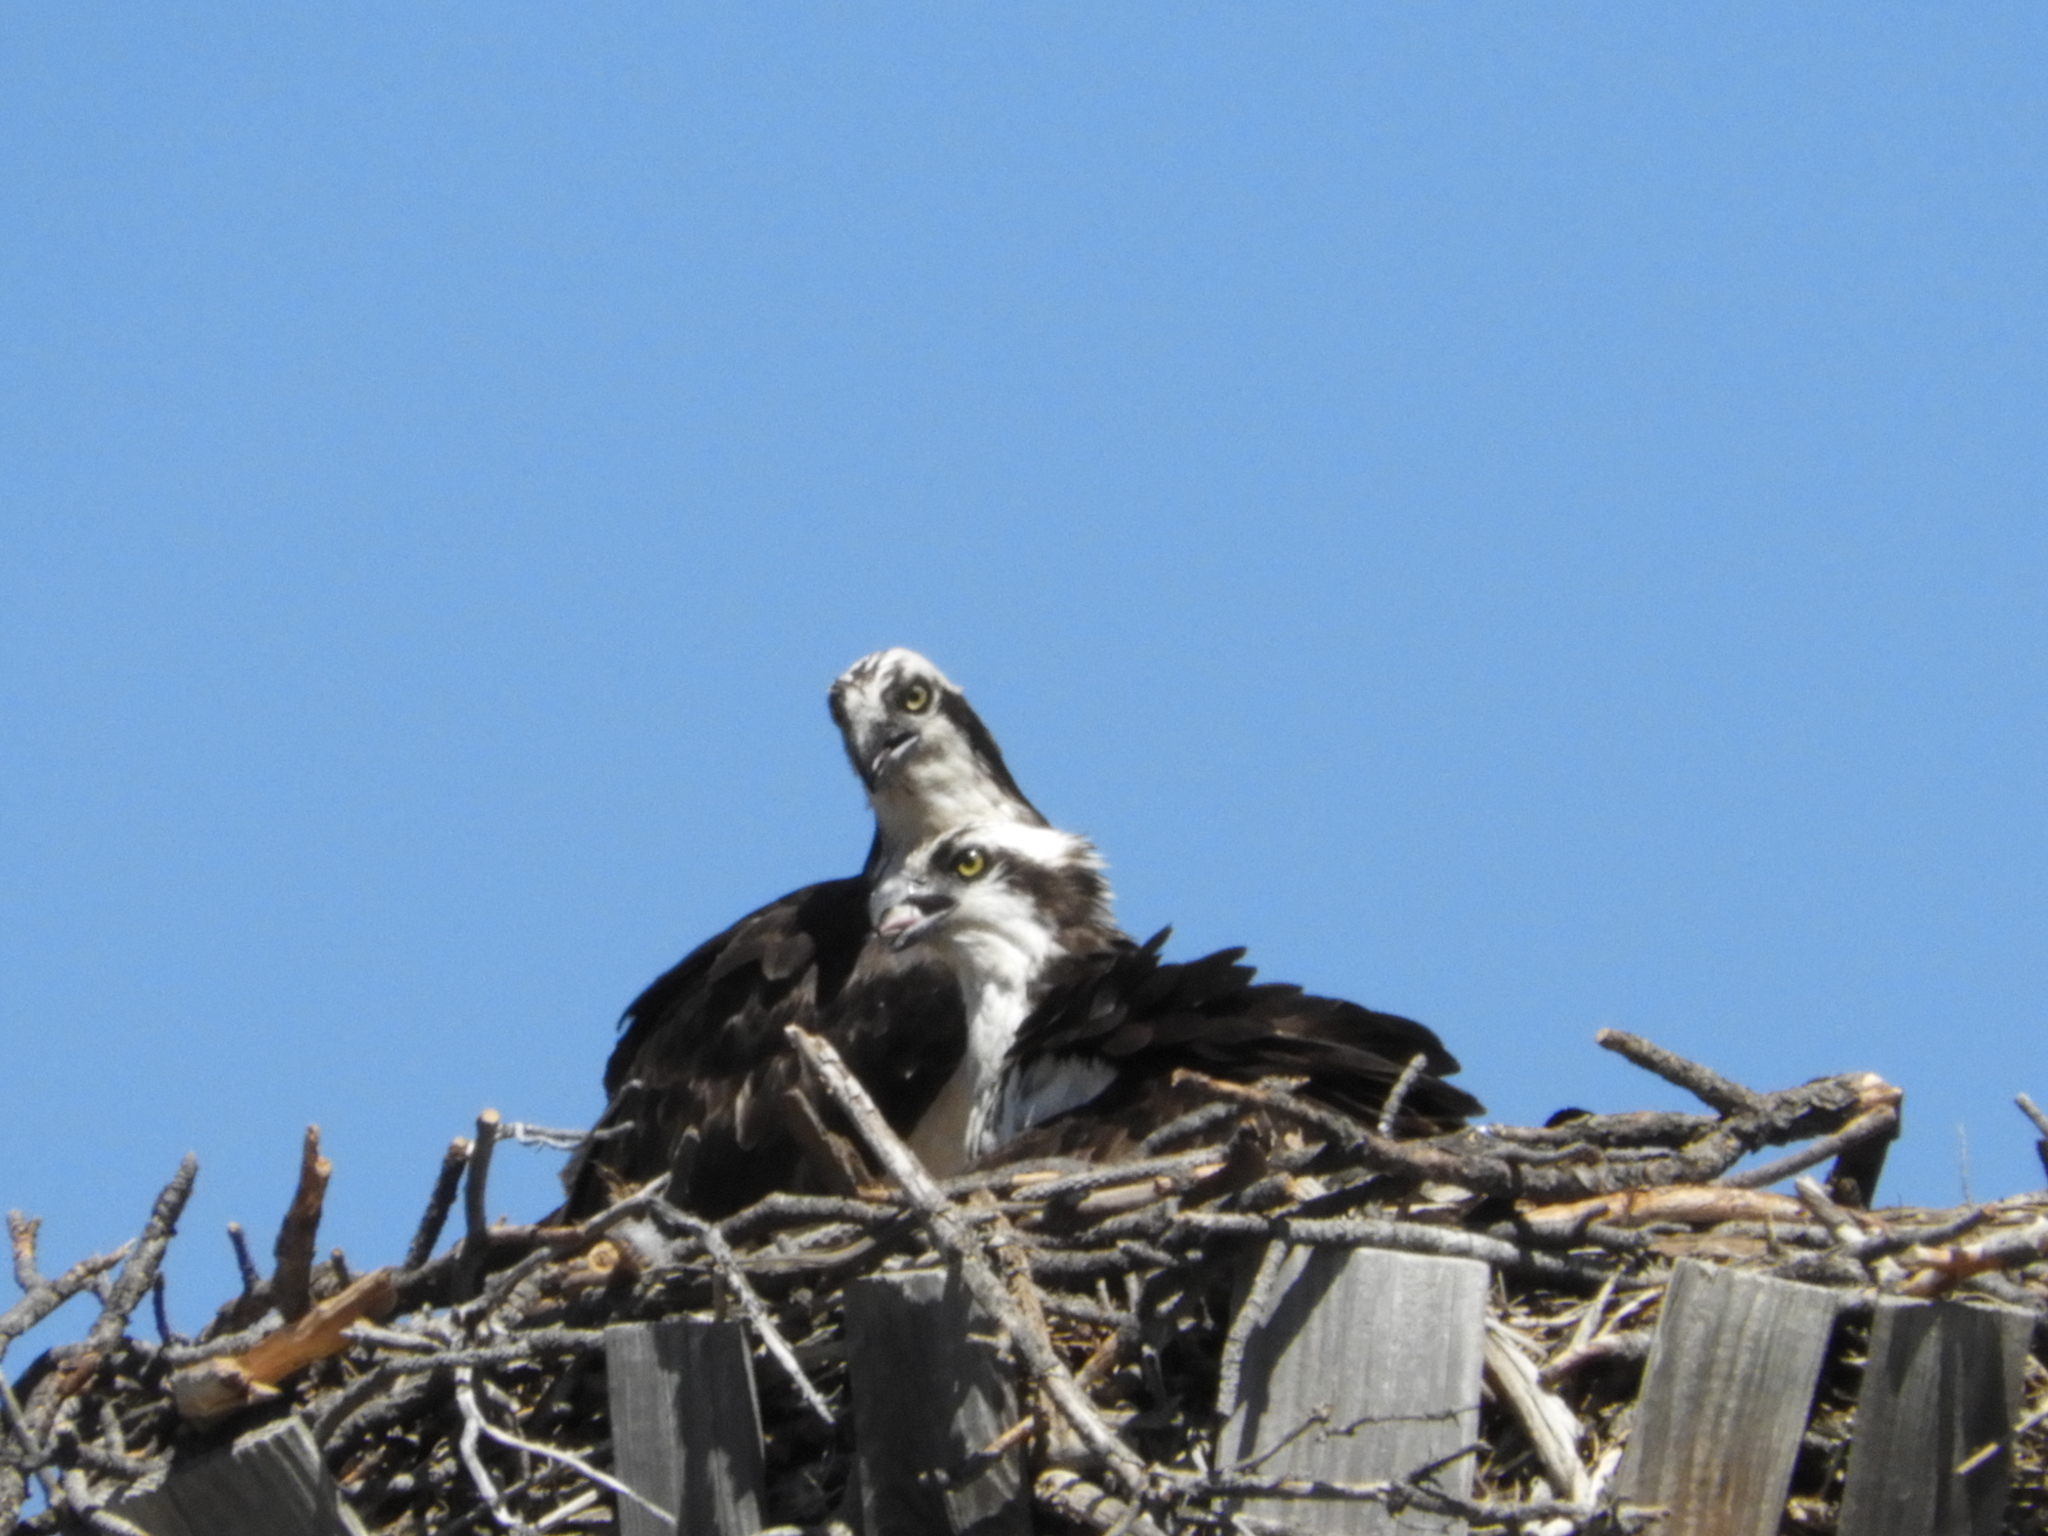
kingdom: Animalia
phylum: Chordata
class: Aves
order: Accipitriformes
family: Pandionidae
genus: Pandion
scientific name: Pandion haliaetus
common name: Osprey
